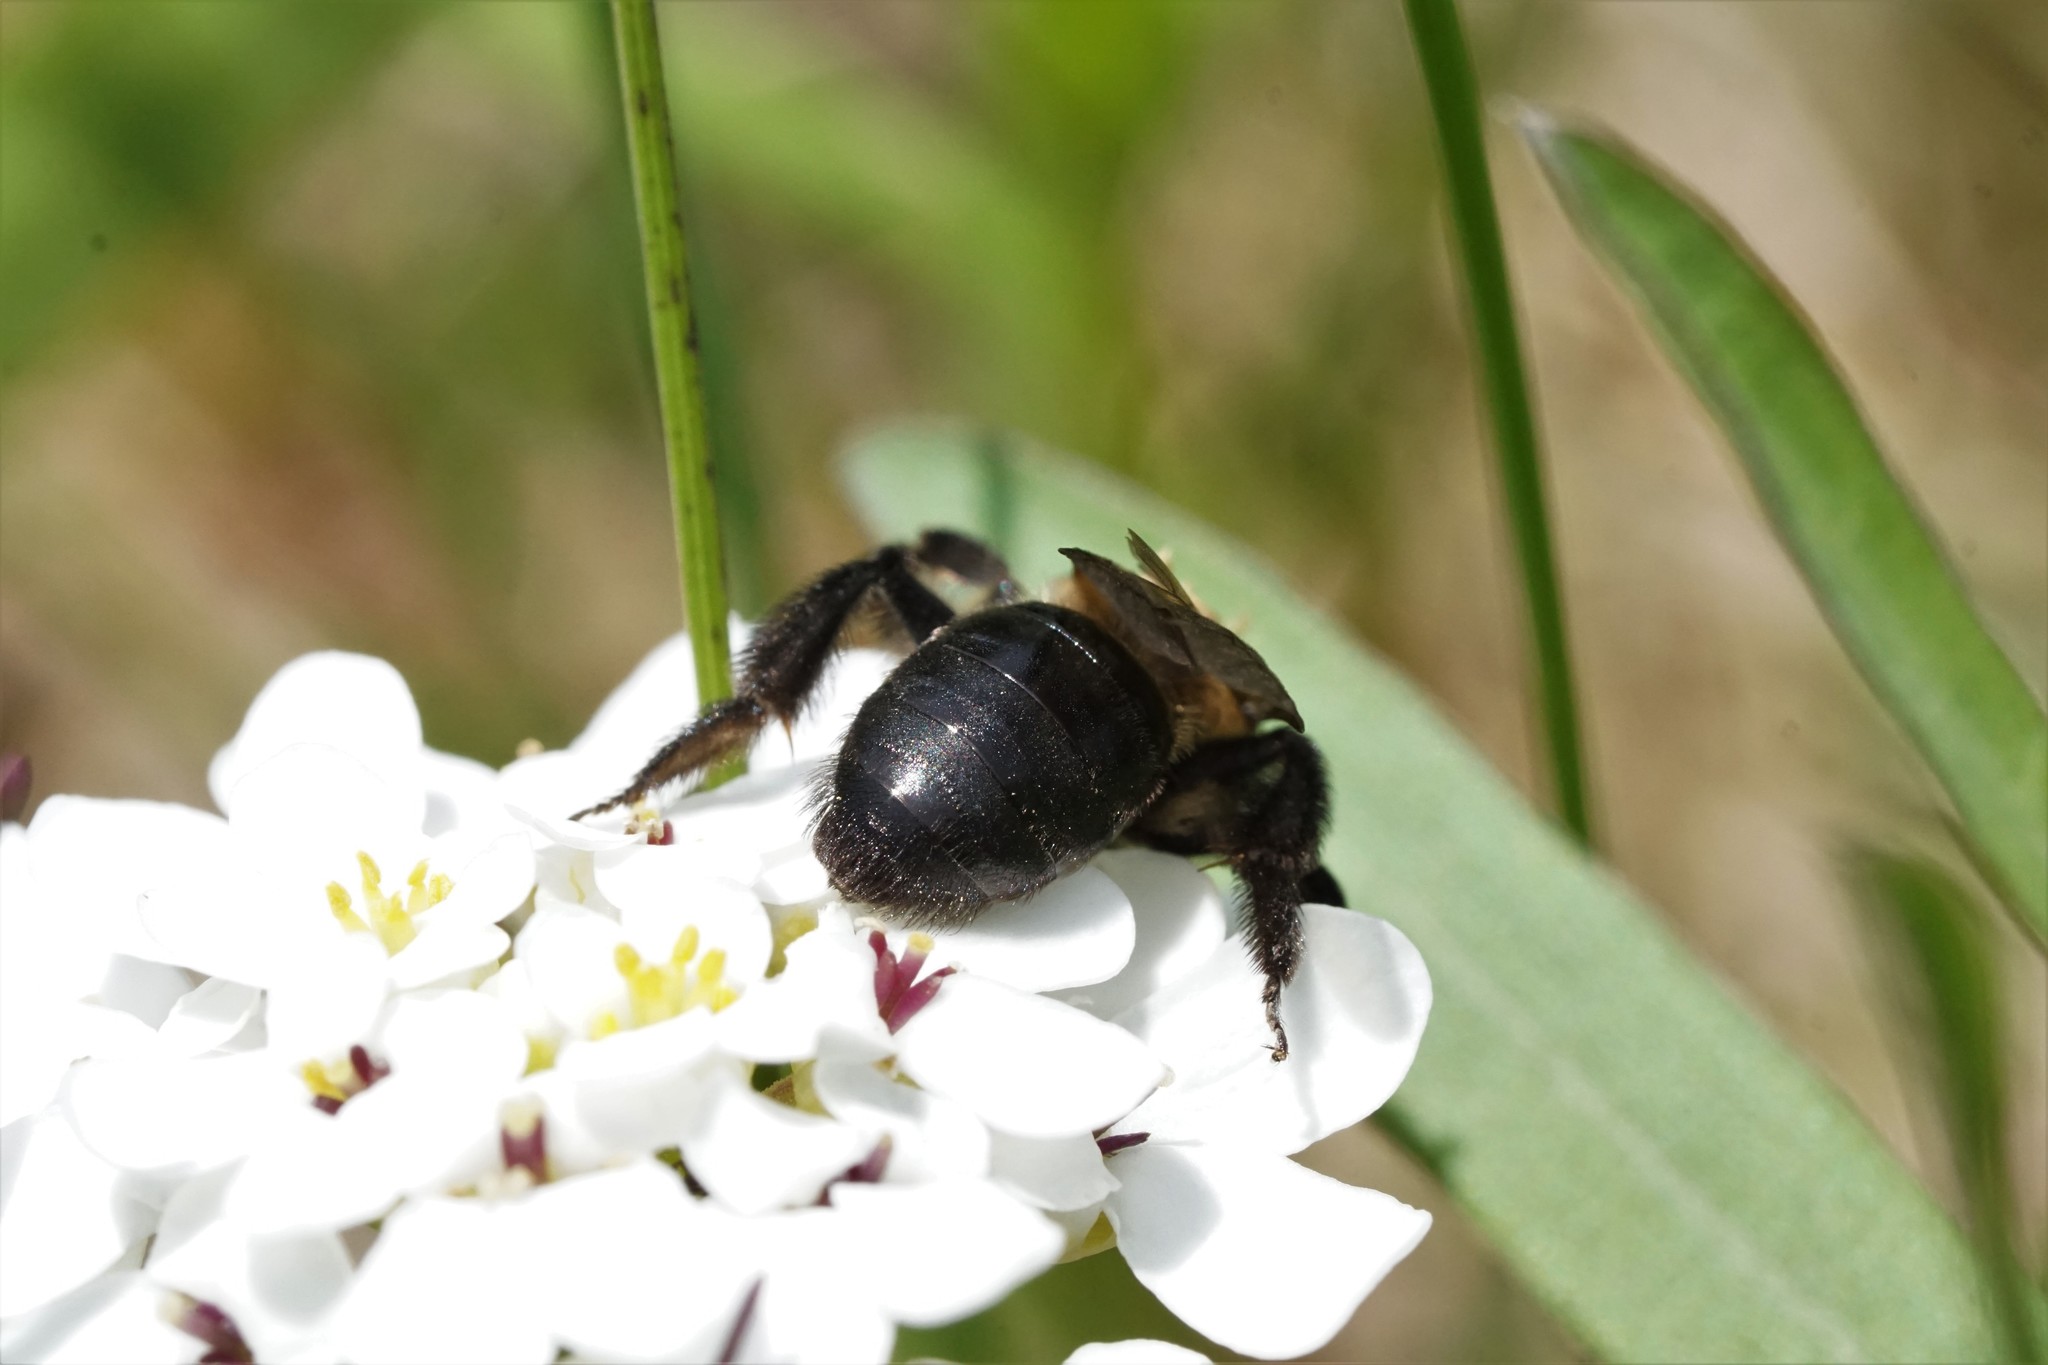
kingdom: Animalia
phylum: Arthropoda
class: Insecta
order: Hymenoptera
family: Andrenidae
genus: Andrena
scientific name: Andrena vicina
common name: Neighborly mining bee
